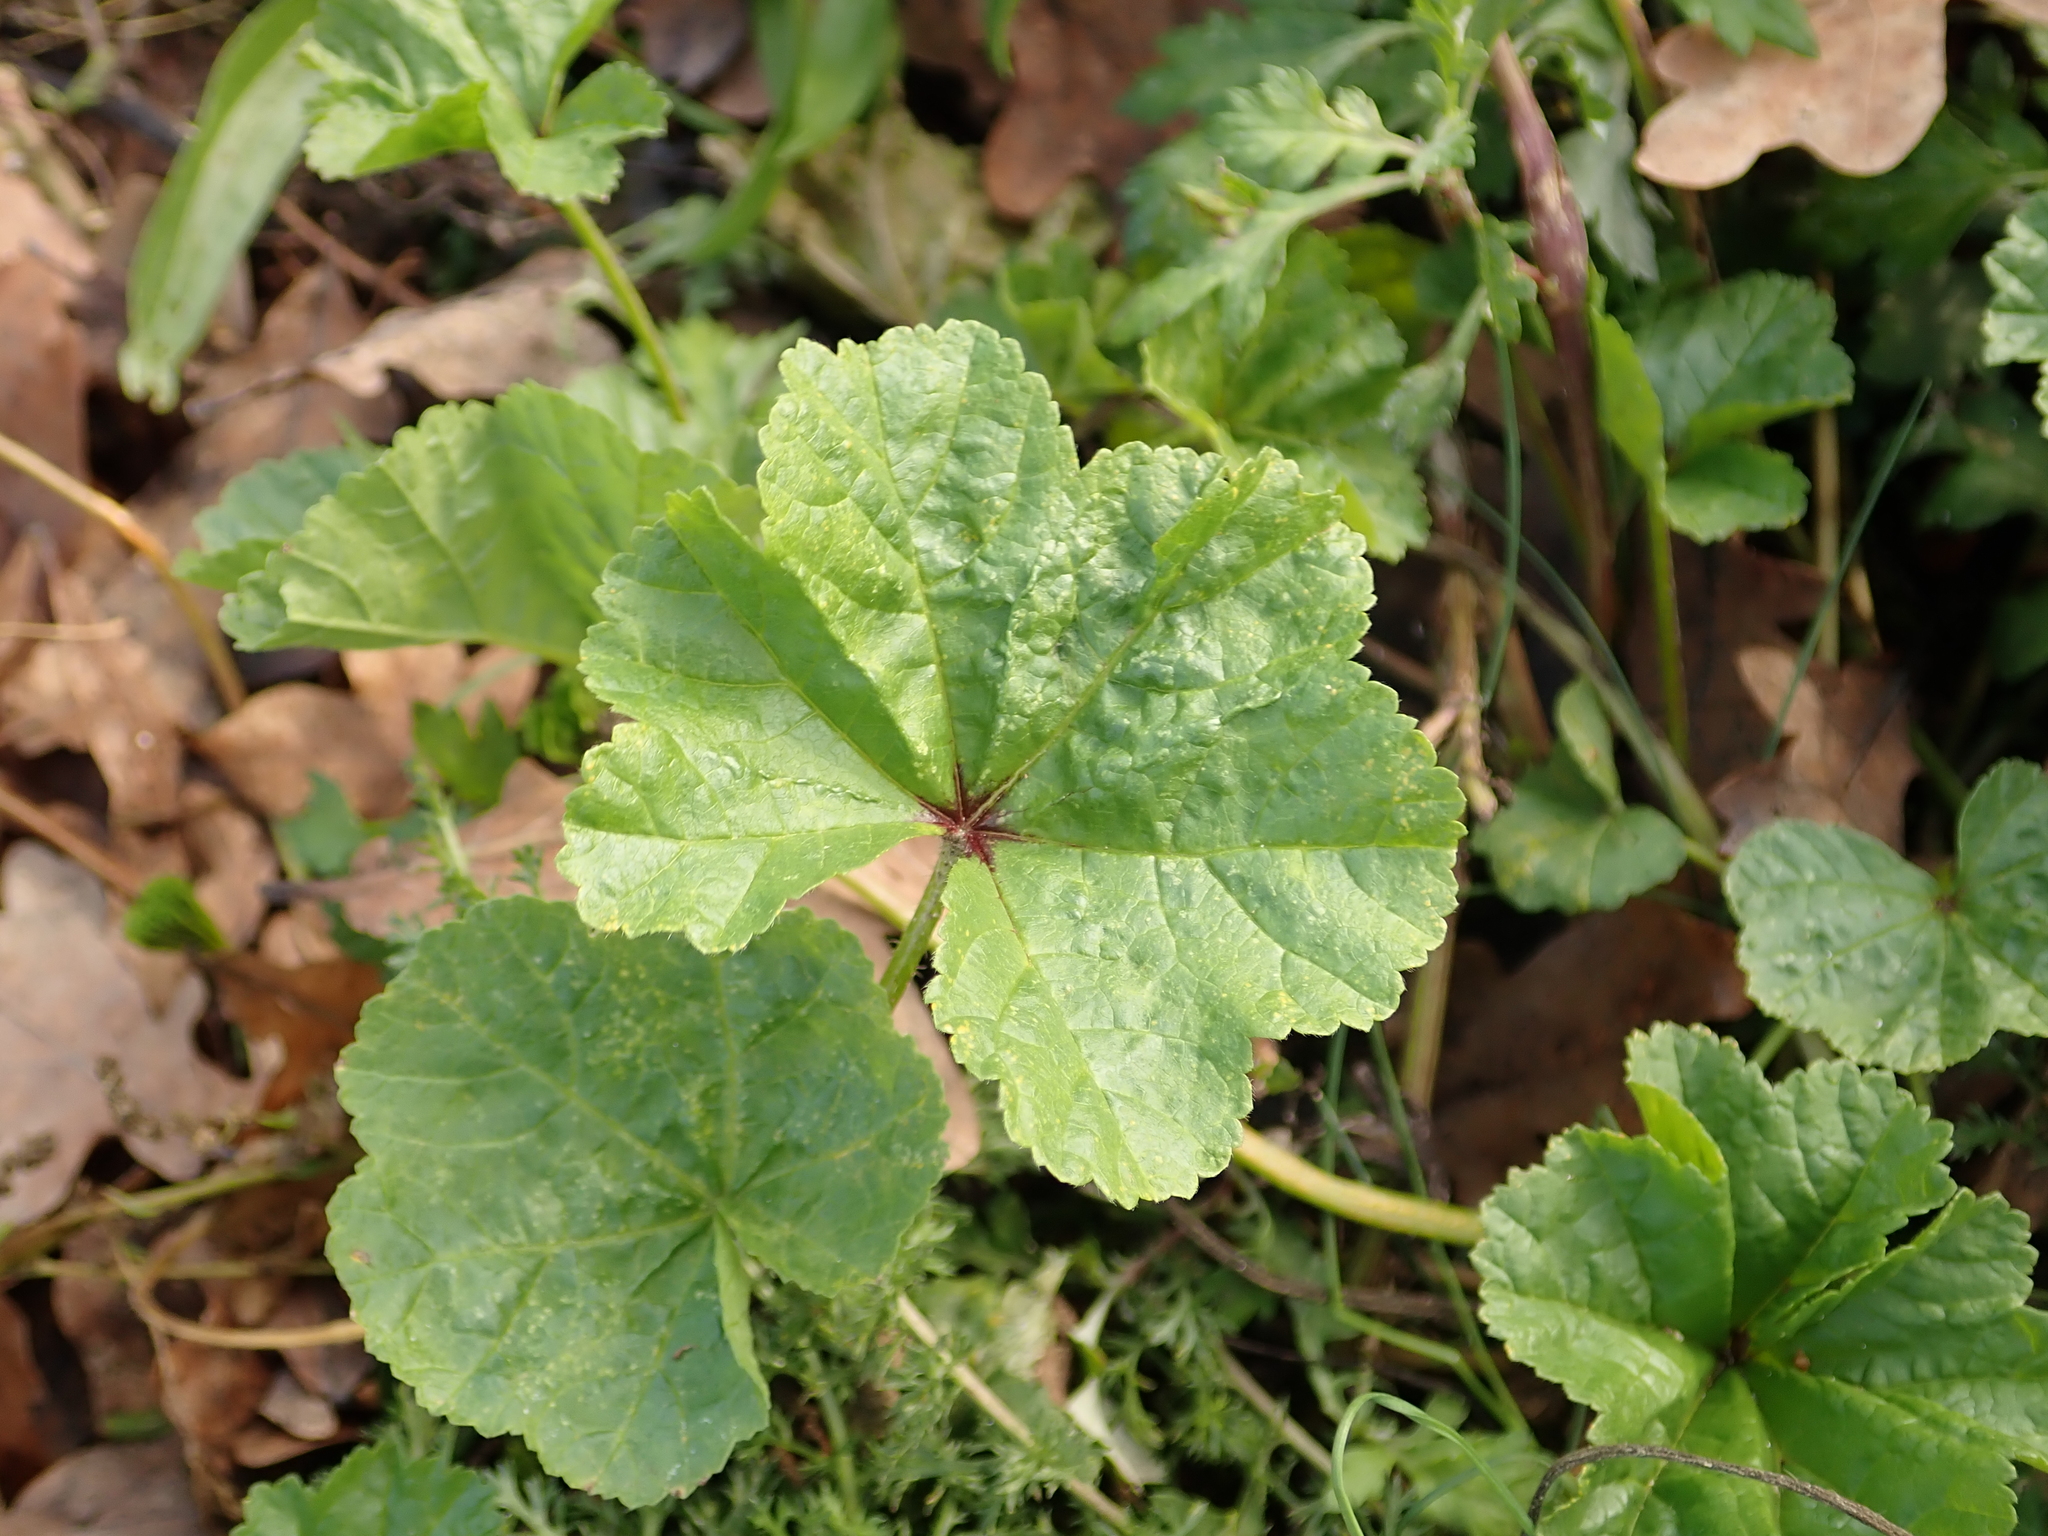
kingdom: Plantae
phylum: Tracheophyta
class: Magnoliopsida
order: Malvales
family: Malvaceae
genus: Malva
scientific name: Malva sylvestris
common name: Common mallow
